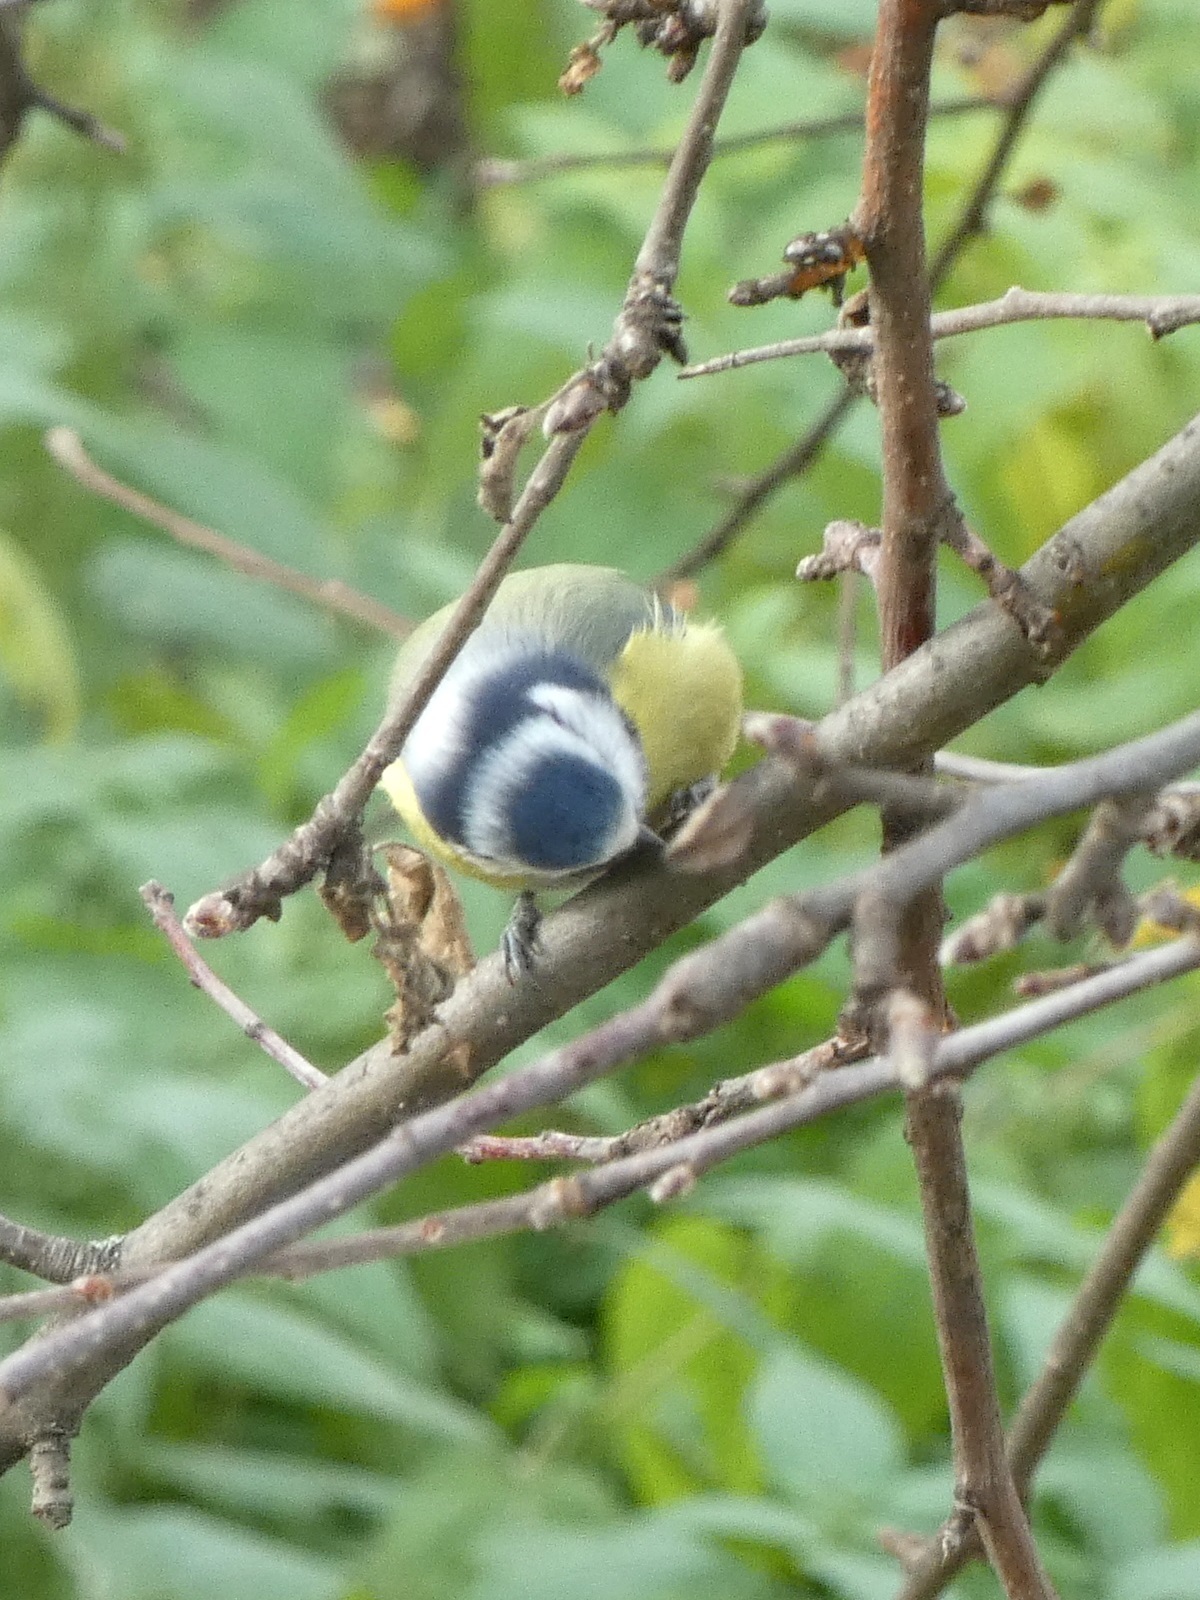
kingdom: Animalia
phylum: Chordata
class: Aves
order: Passeriformes
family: Paridae
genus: Cyanistes
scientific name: Cyanistes caeruleus
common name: Eurasian blue tit
